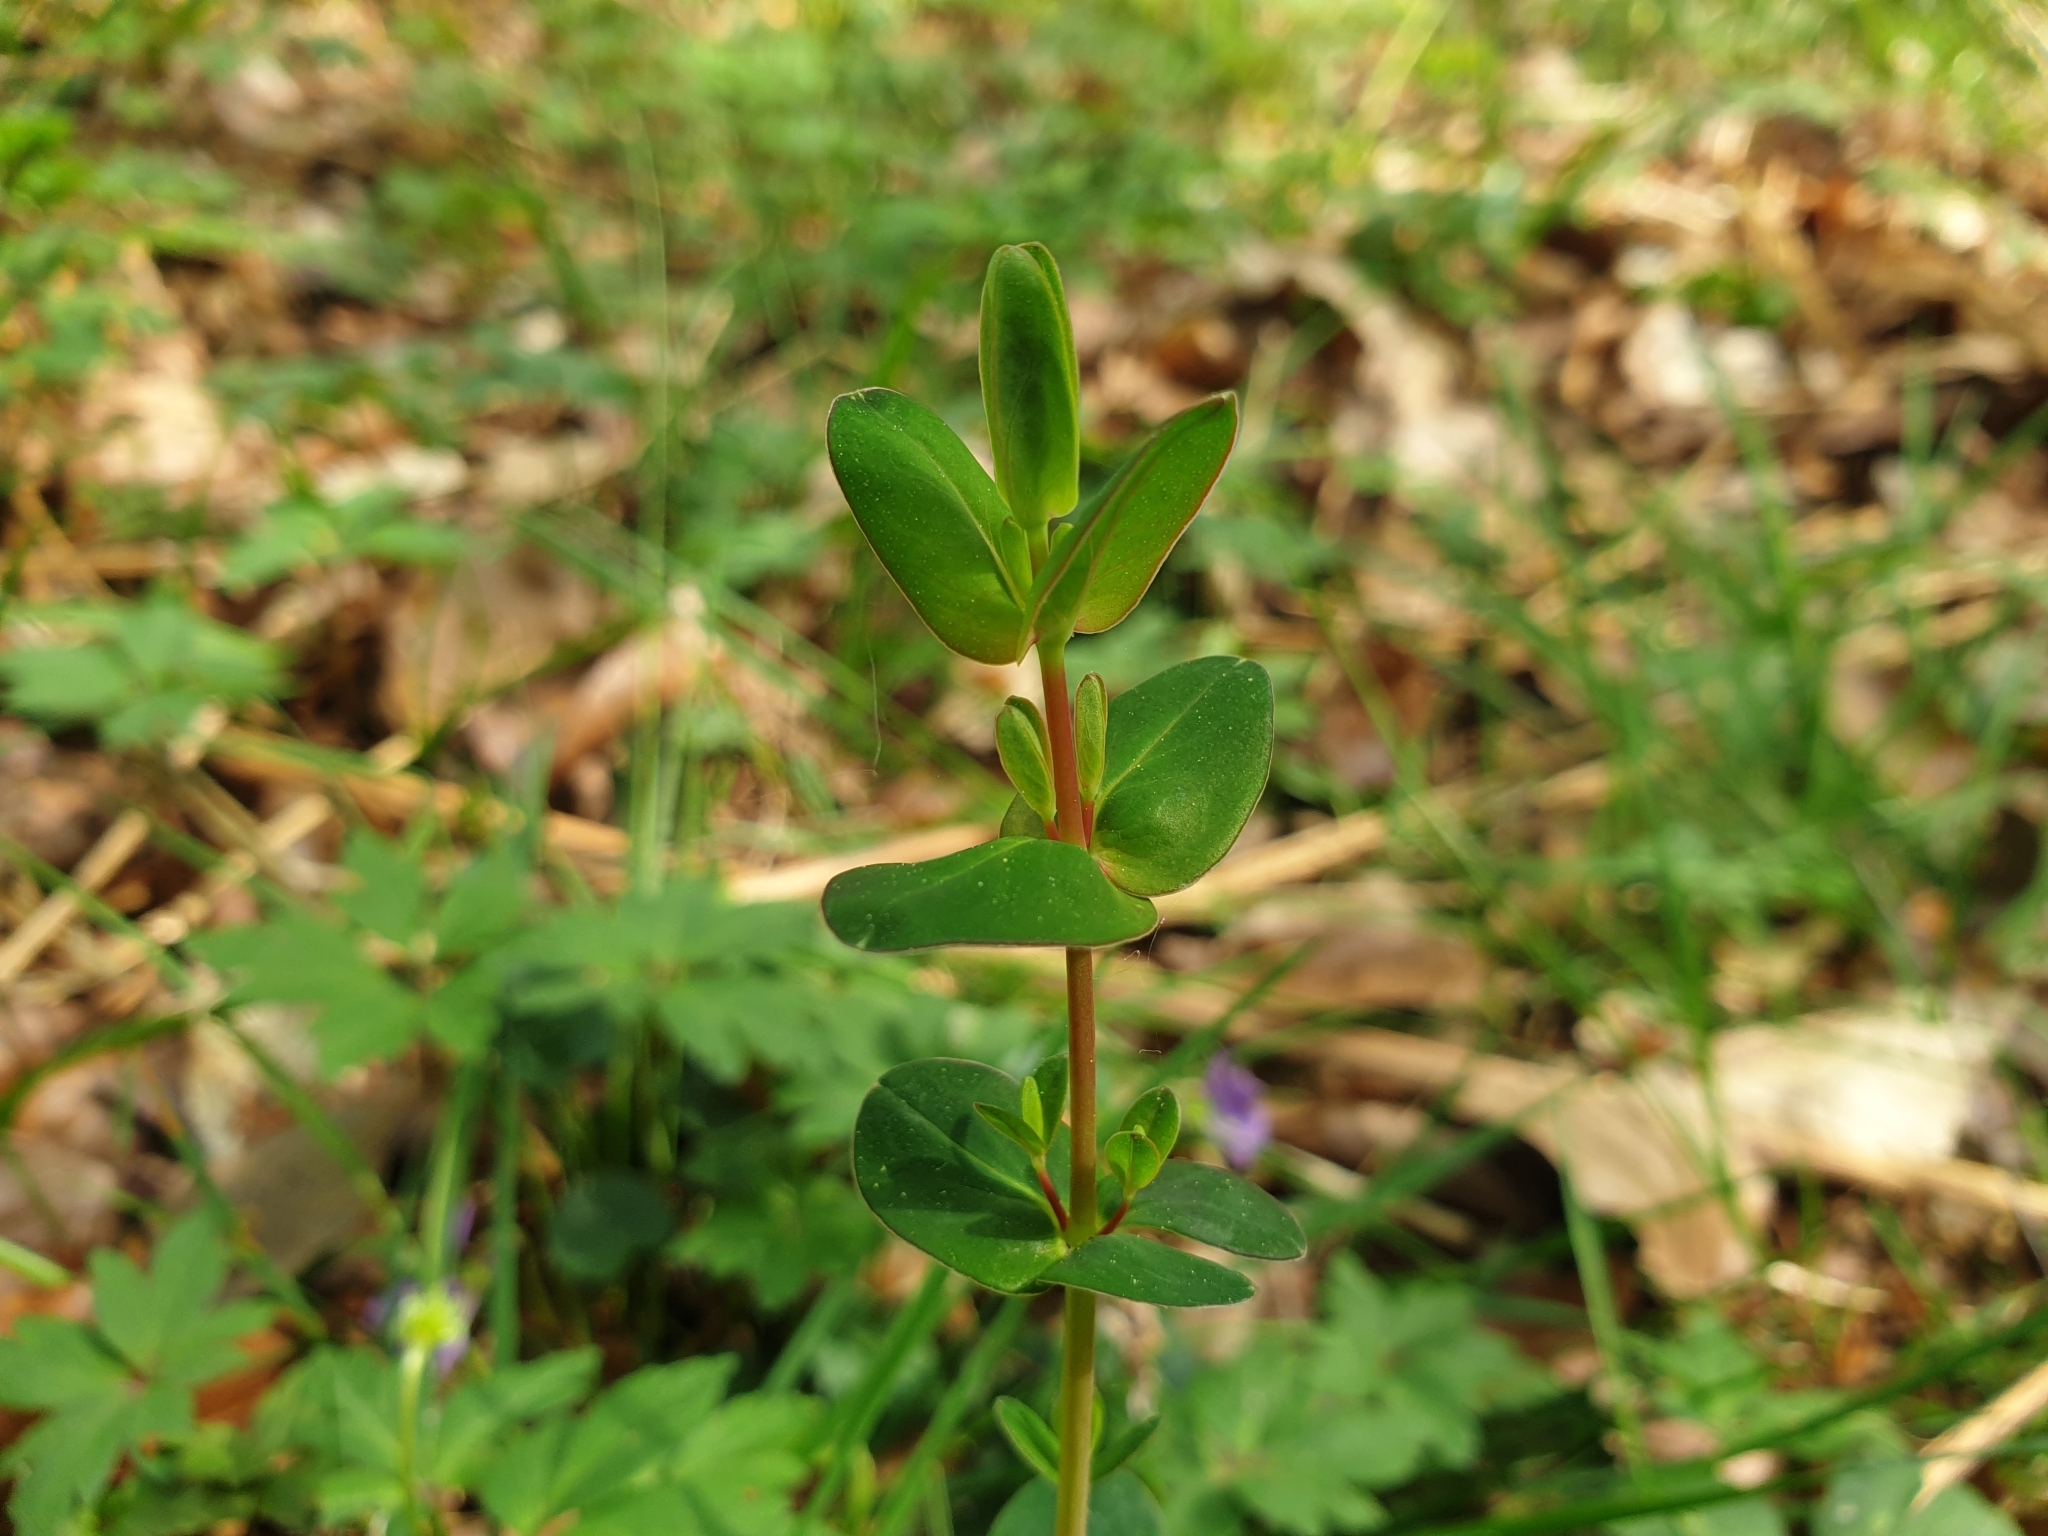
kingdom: Plantae
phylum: Tracheophyta
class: Magnoliopsida
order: Malpighiales
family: Hypericaceae
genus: Hypericum
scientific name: Hypericum pulchrum
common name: Slender st. john's-wort
